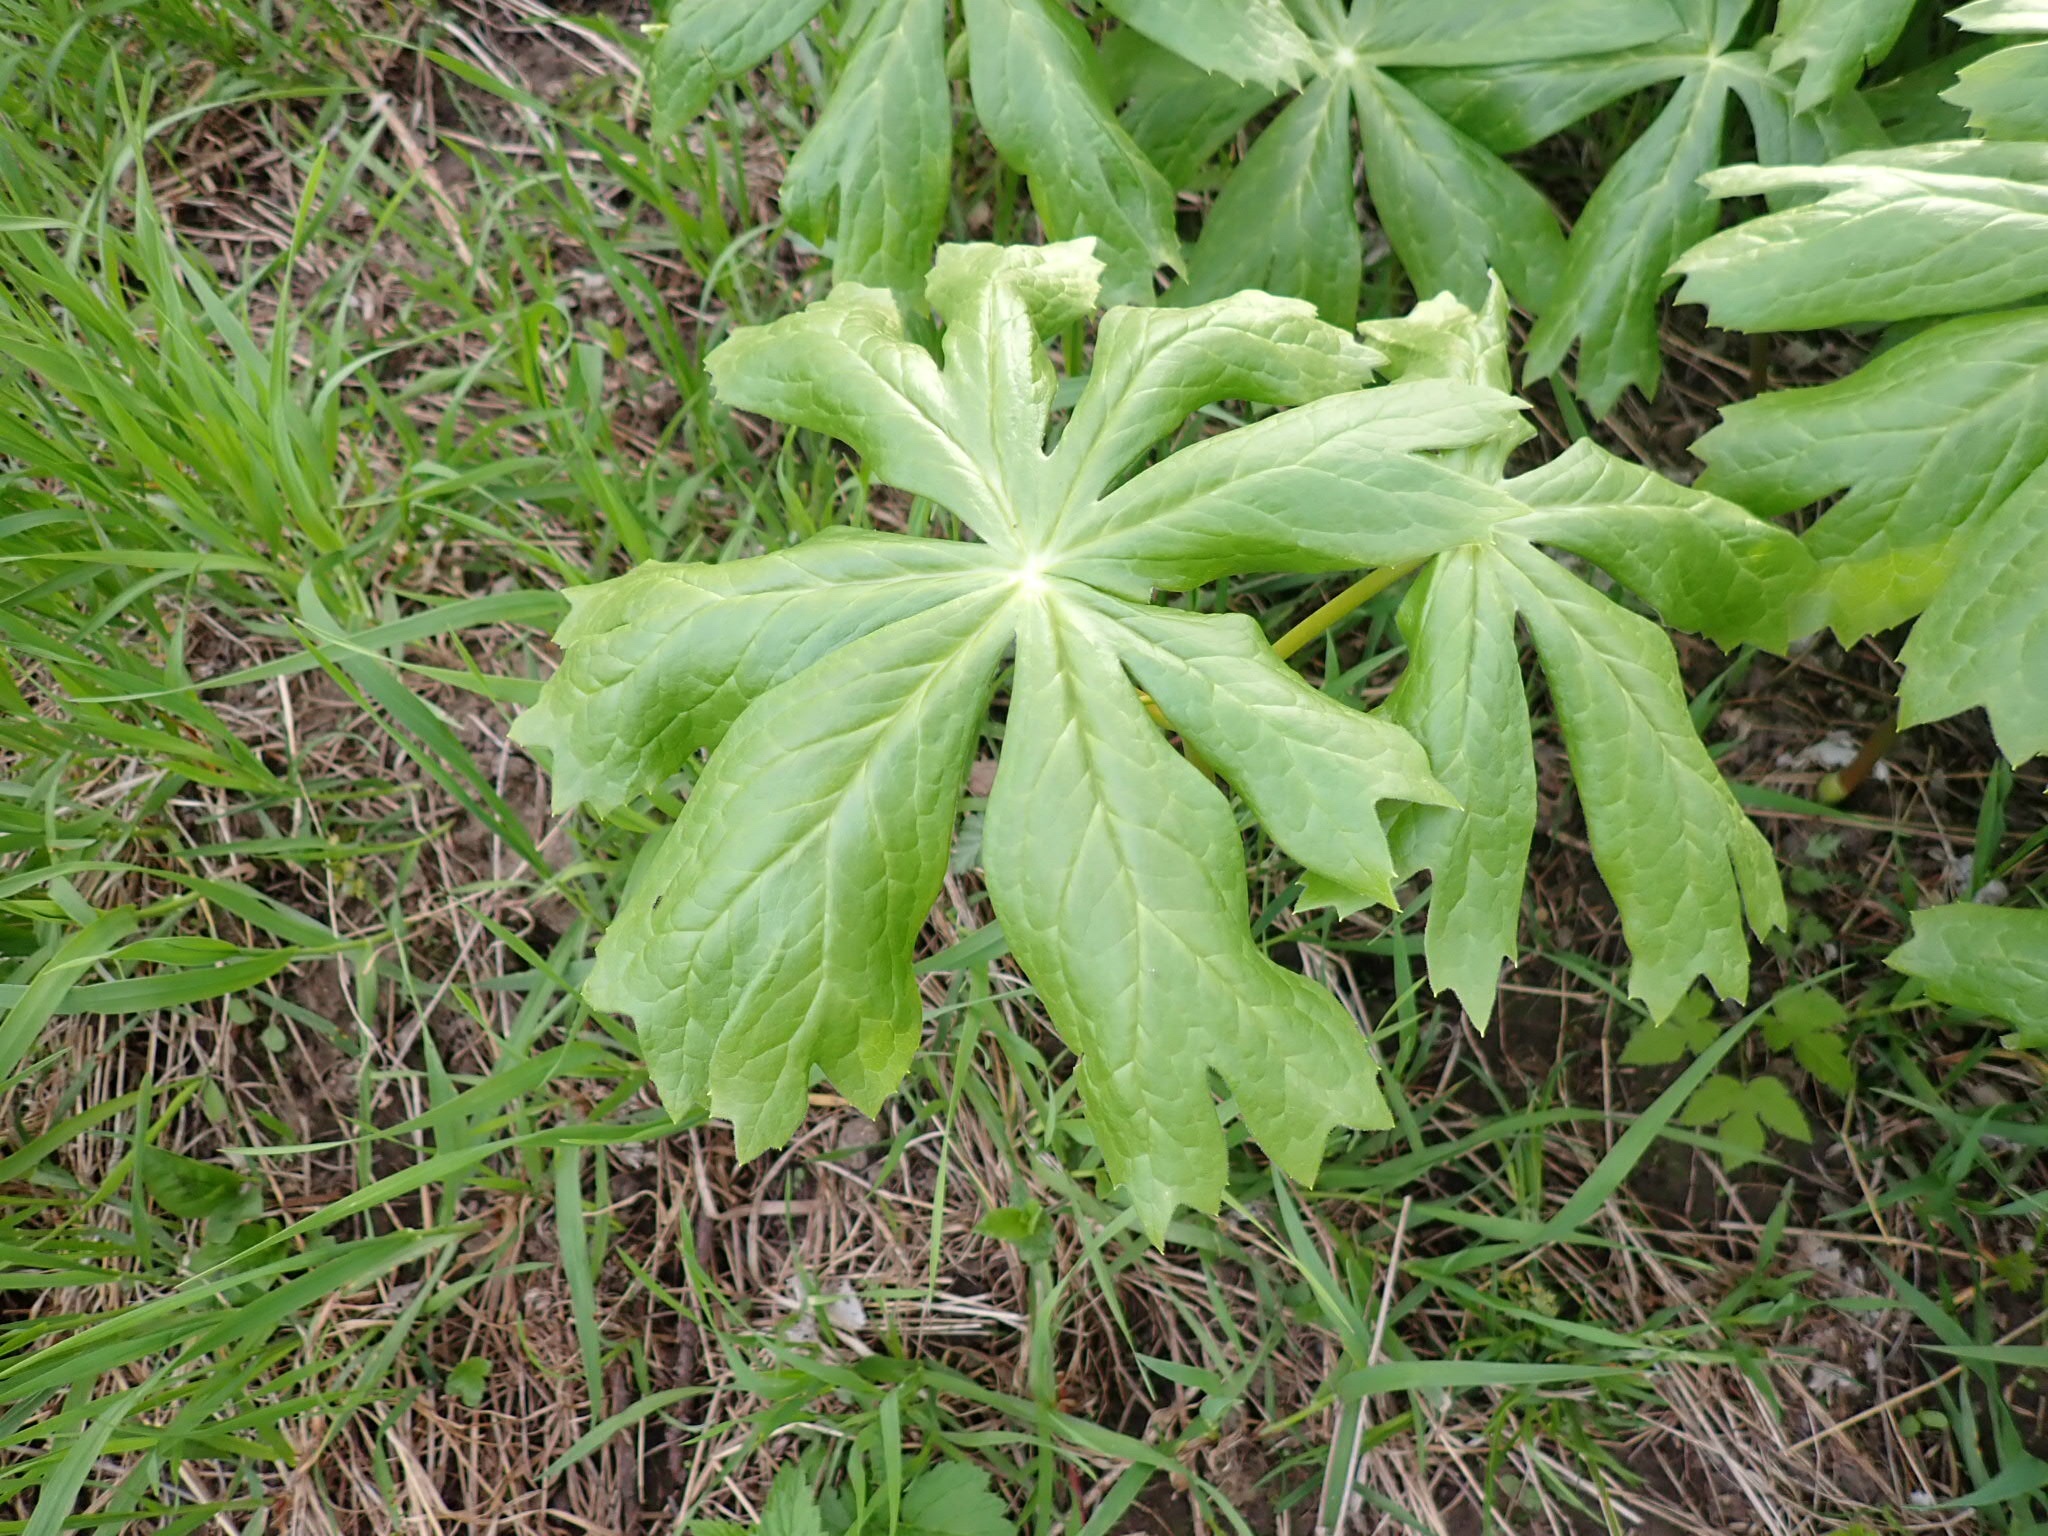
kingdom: Plantae
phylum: Tracheophyta
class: Magnoliopsida
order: Ranunculales
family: Berberidaceae
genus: Podophyllum
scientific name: Podophyllum peltatum
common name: Wild mandrake
